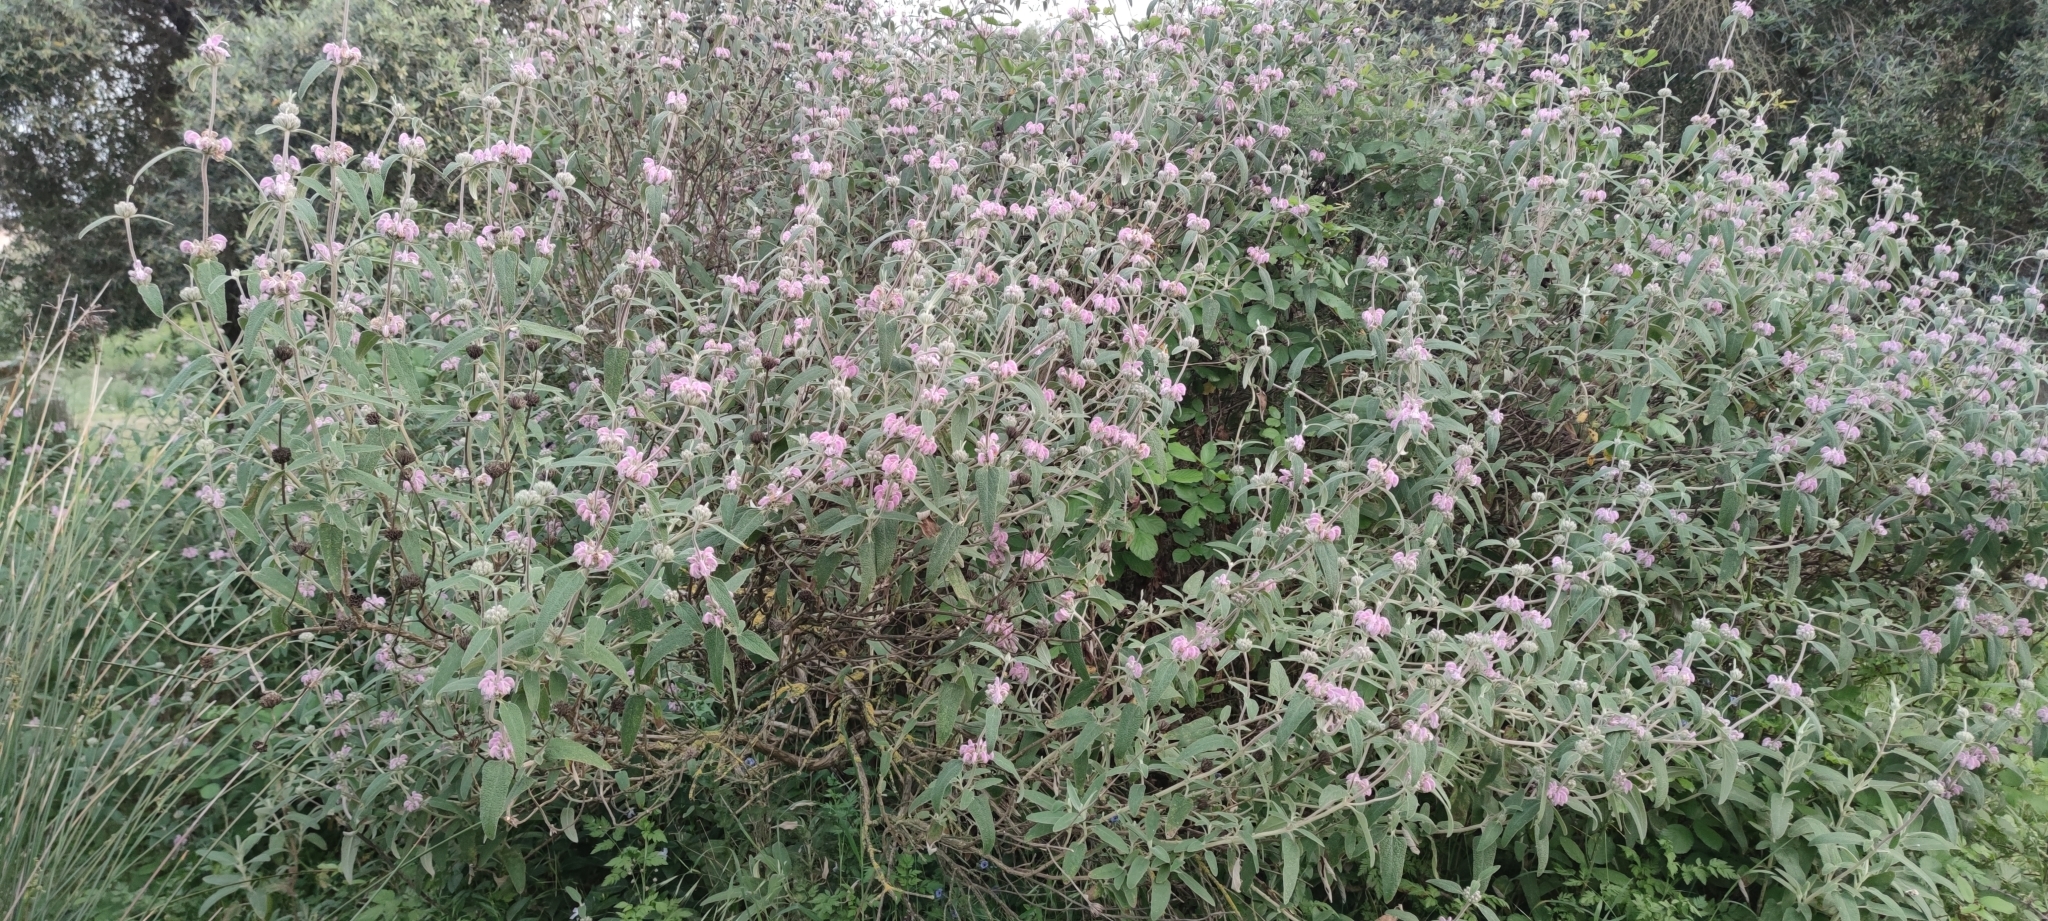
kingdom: Plantae
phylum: Tracheophyta
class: Magnoliopsida
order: Lamiales
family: Lamiaceae
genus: Phlomis
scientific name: Phlomis purpurea
